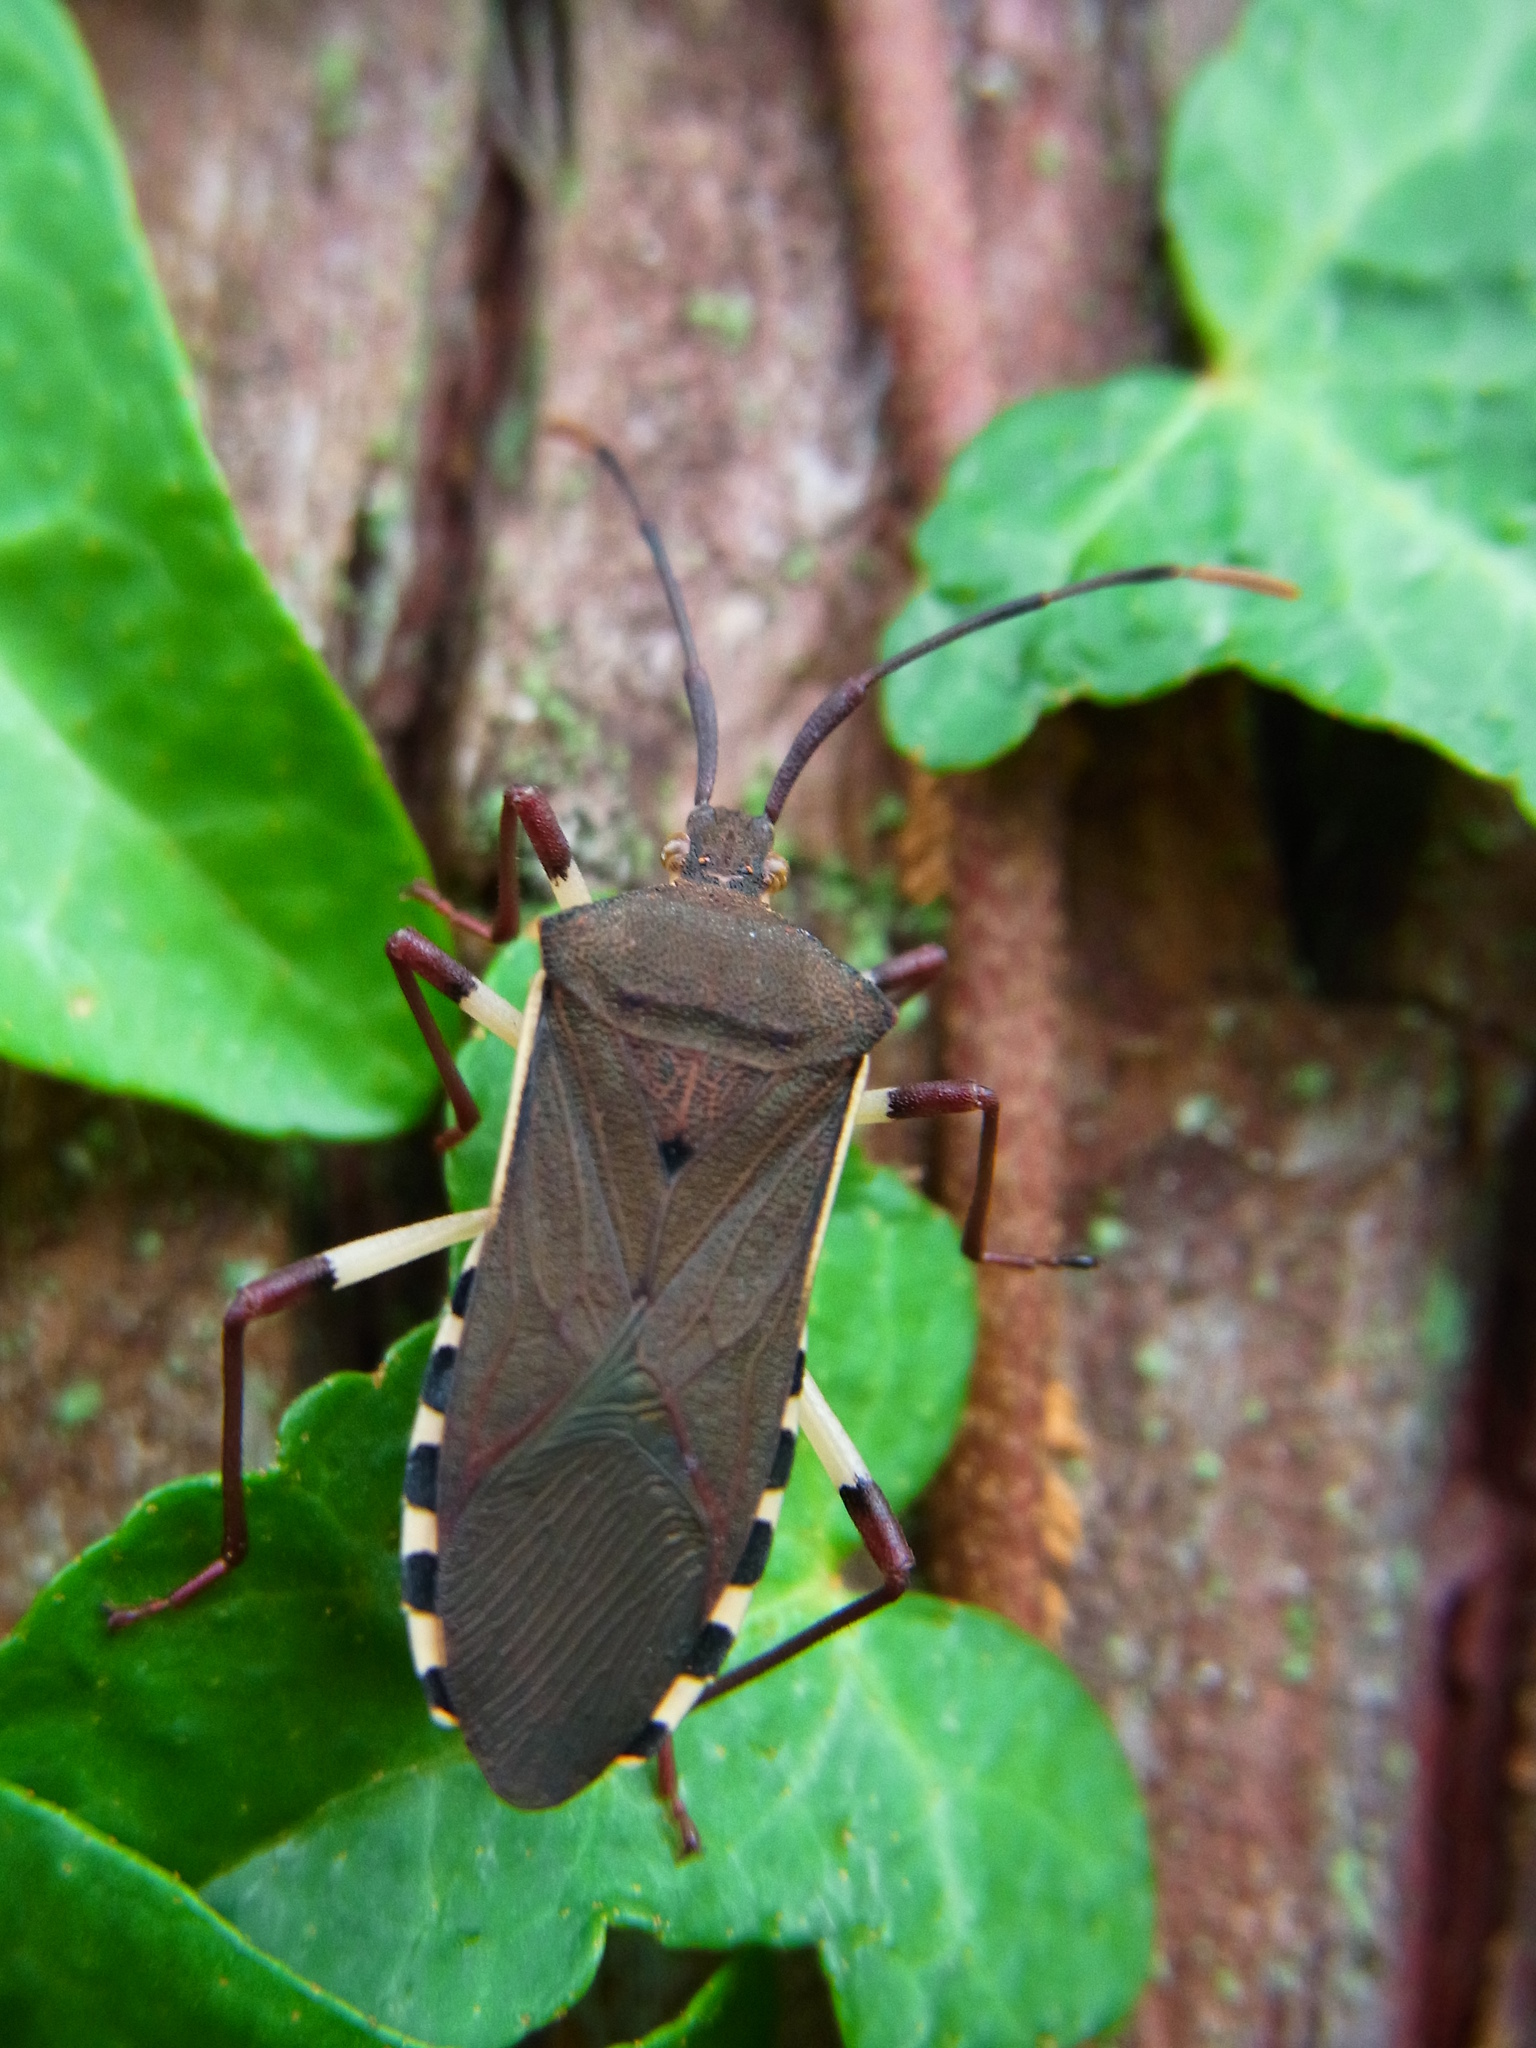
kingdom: Animalia
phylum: Arthropoda
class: Insecta
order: Hemiptera
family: Coreidae
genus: Plinachtus
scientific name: Plinachtus bicoloripes
